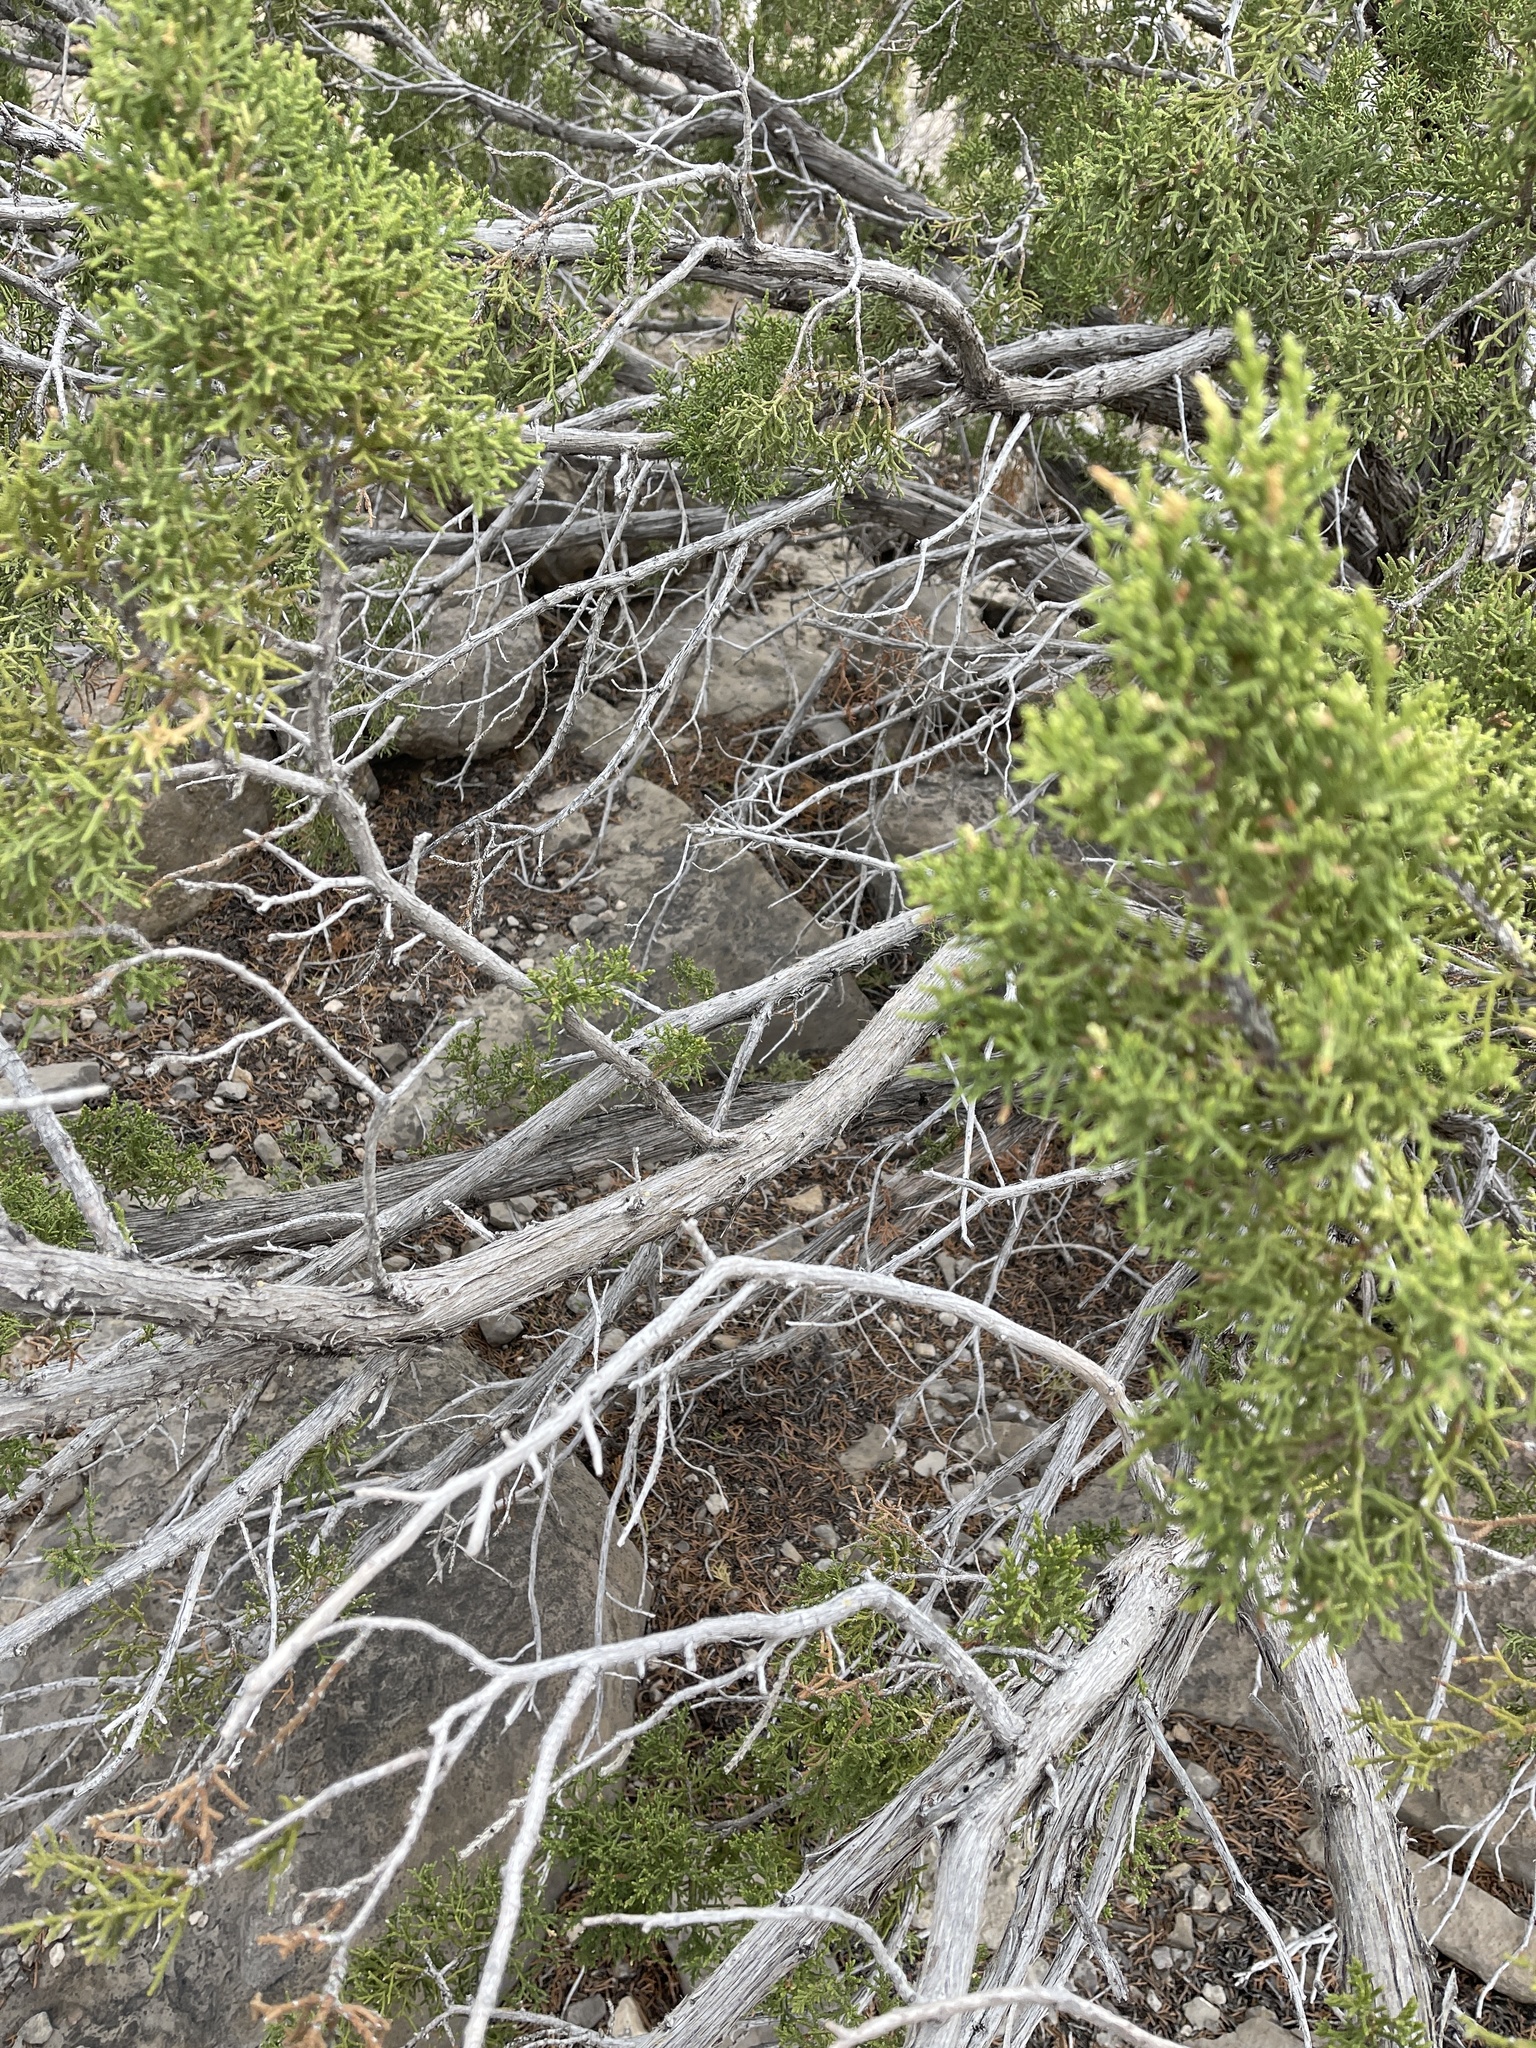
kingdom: Plantae
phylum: Tracheophyta
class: Pinopsida
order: Pinales
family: Cupressaceae
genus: Juniperus
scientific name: Juniperus monosperma
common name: One-seed juniper
